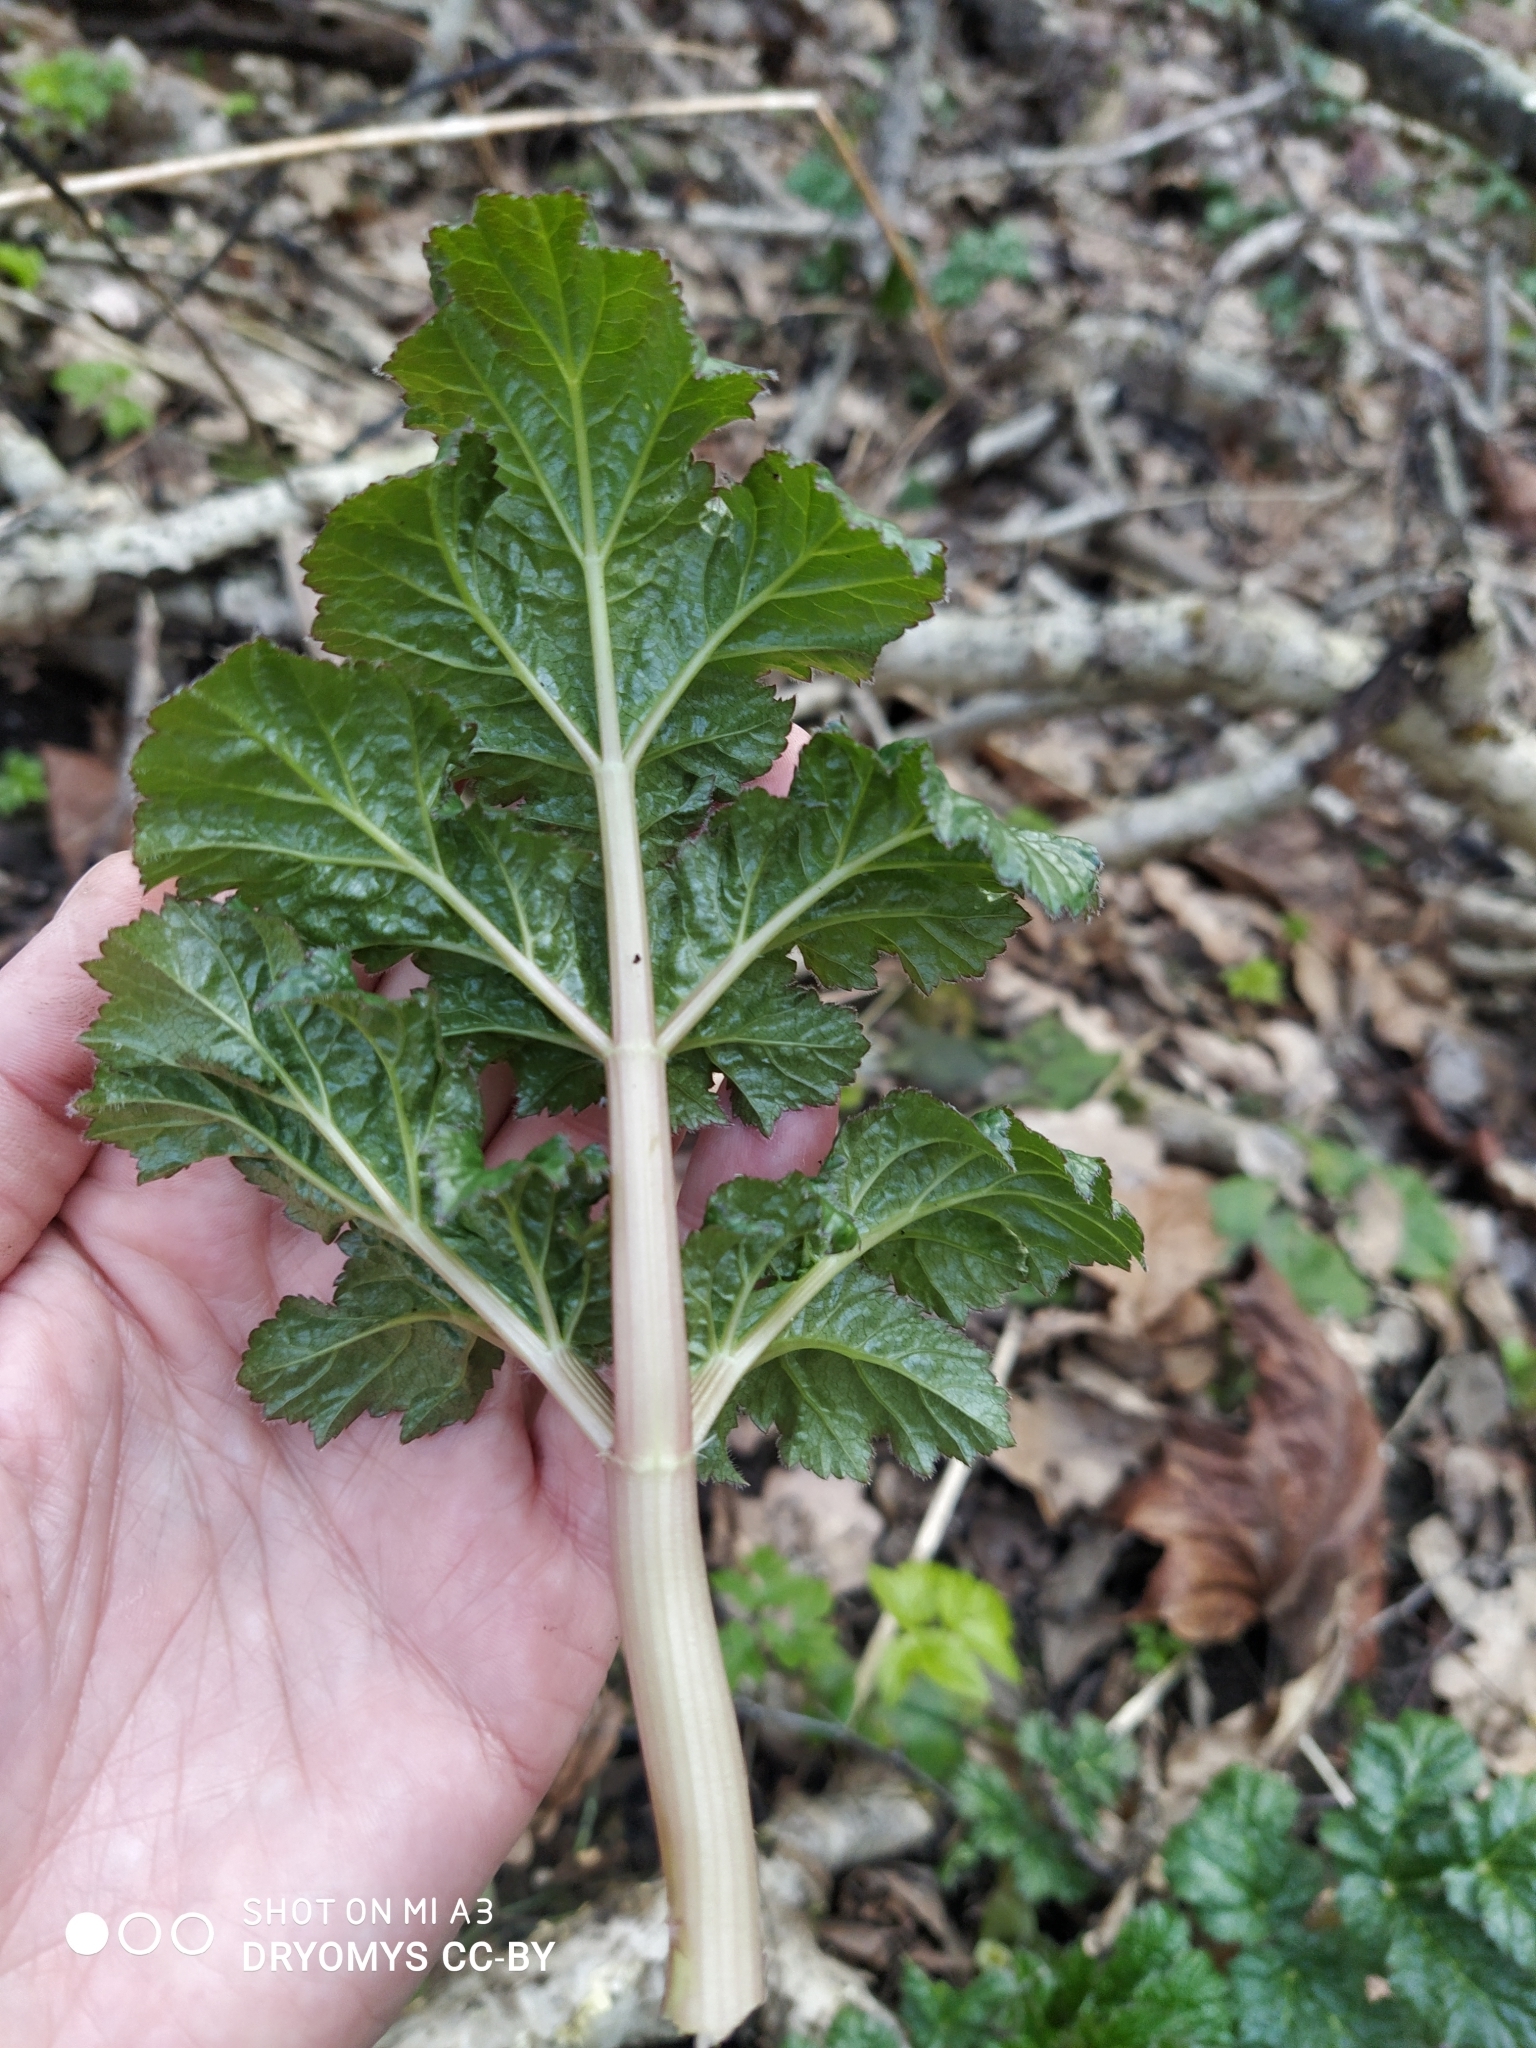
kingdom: Plantae
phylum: Tracheophyta
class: Magnoliopsida
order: Apiales
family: Apiaceae
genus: Heracleum
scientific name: Heracleum sosnowskyi
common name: Sosnowsky's hogweed
